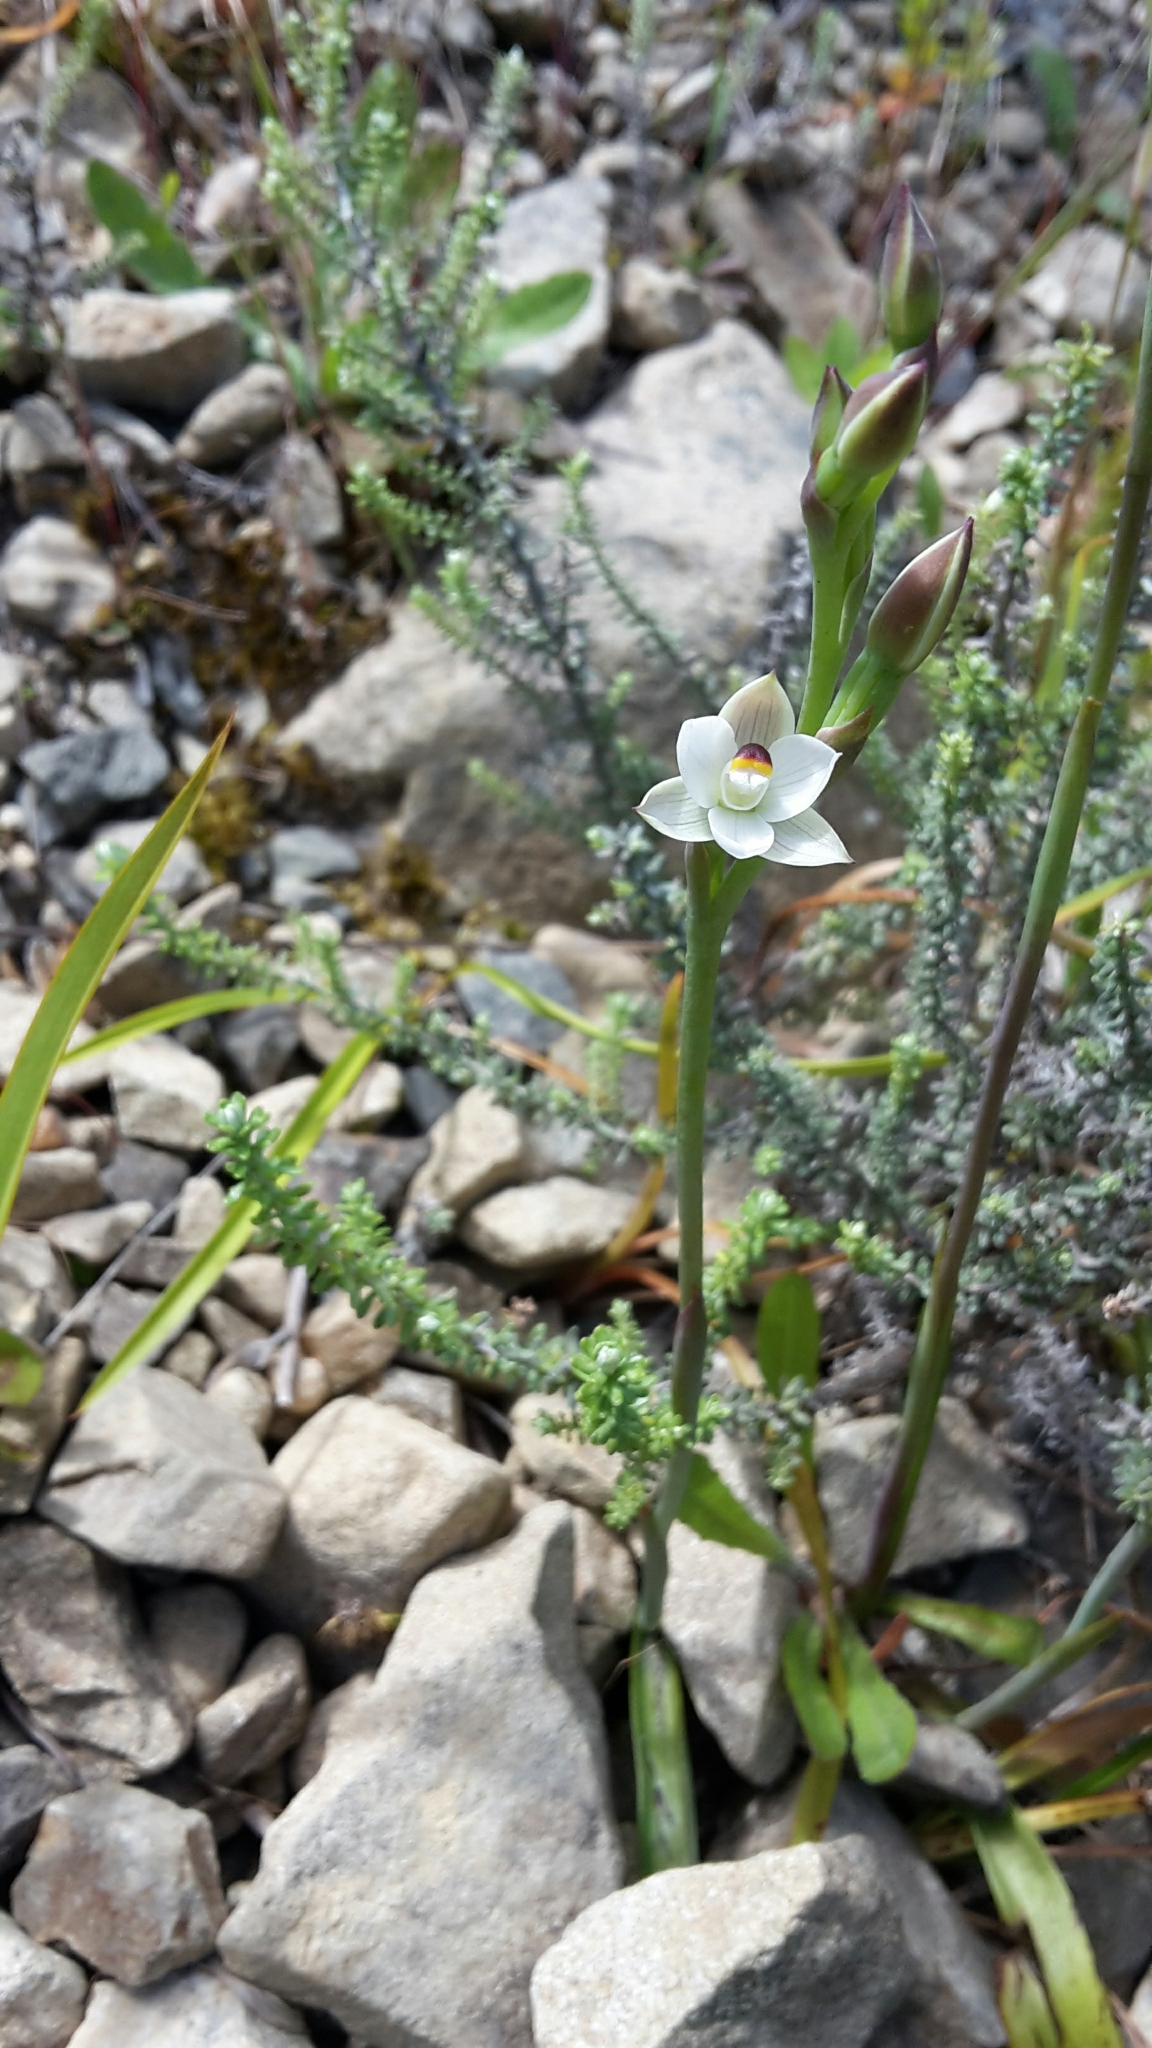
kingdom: Plantae
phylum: Tracheophyta
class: Liliopsida
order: Asparagales
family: Orchidaceae
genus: Thelymitra
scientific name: Thelymitra longifolia
